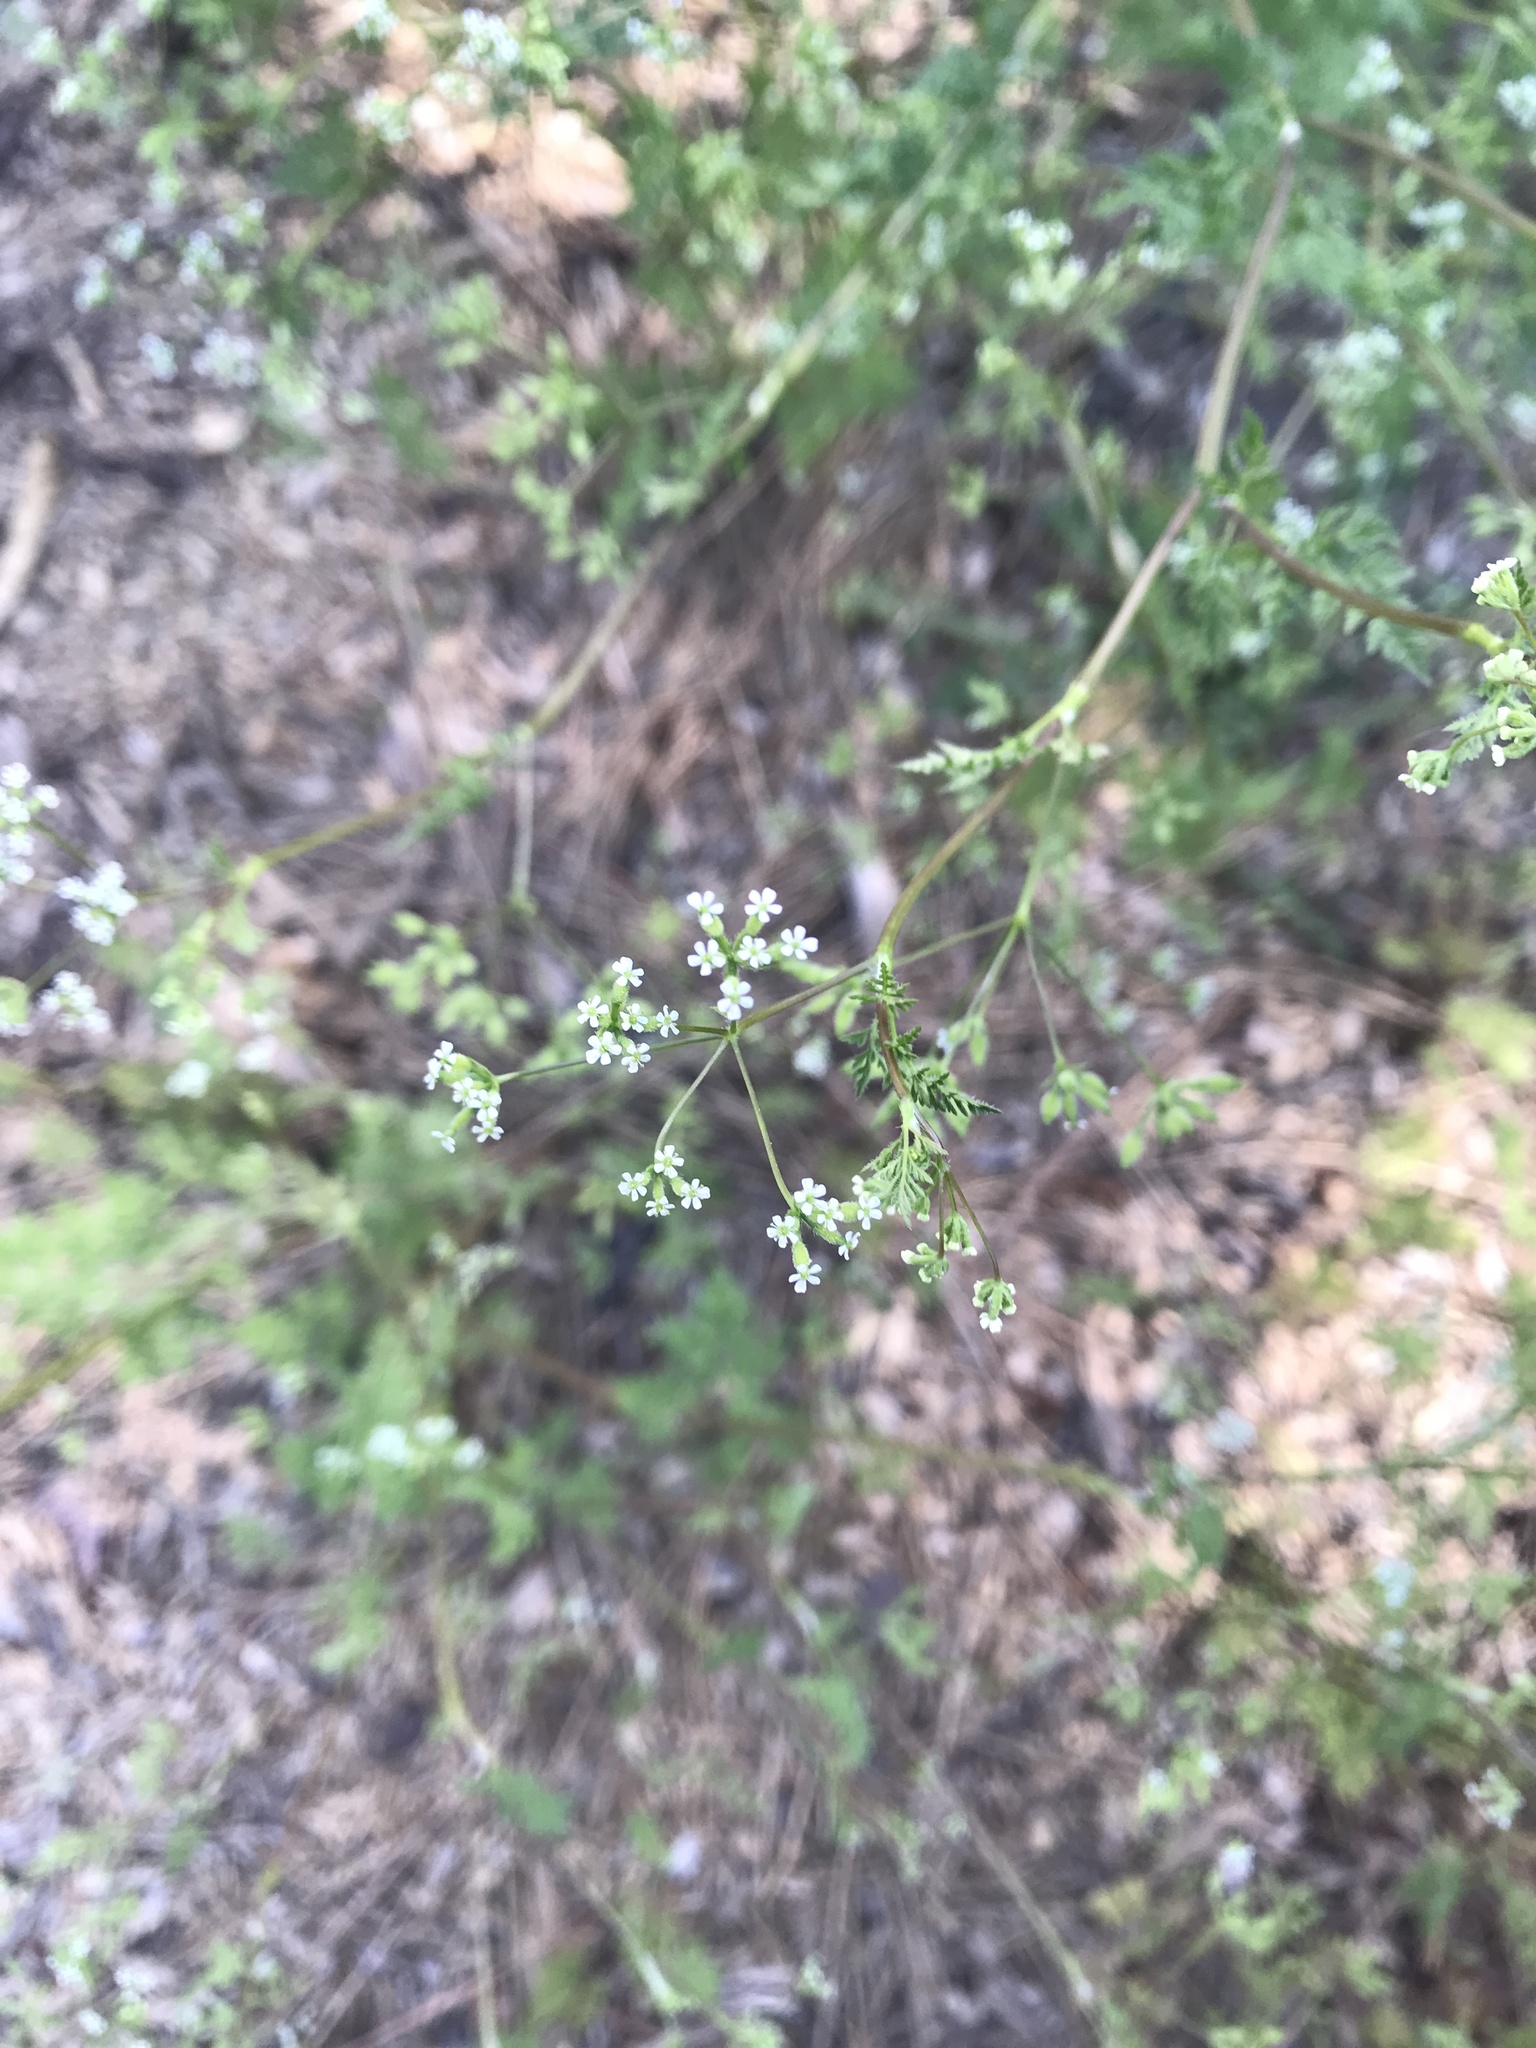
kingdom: Plantae
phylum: Tracheophyta
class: Magnoliopsida
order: Apiales
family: Apiaceae
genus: Anthriscus
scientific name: Anthriscus caucalis
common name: Bur chervil
